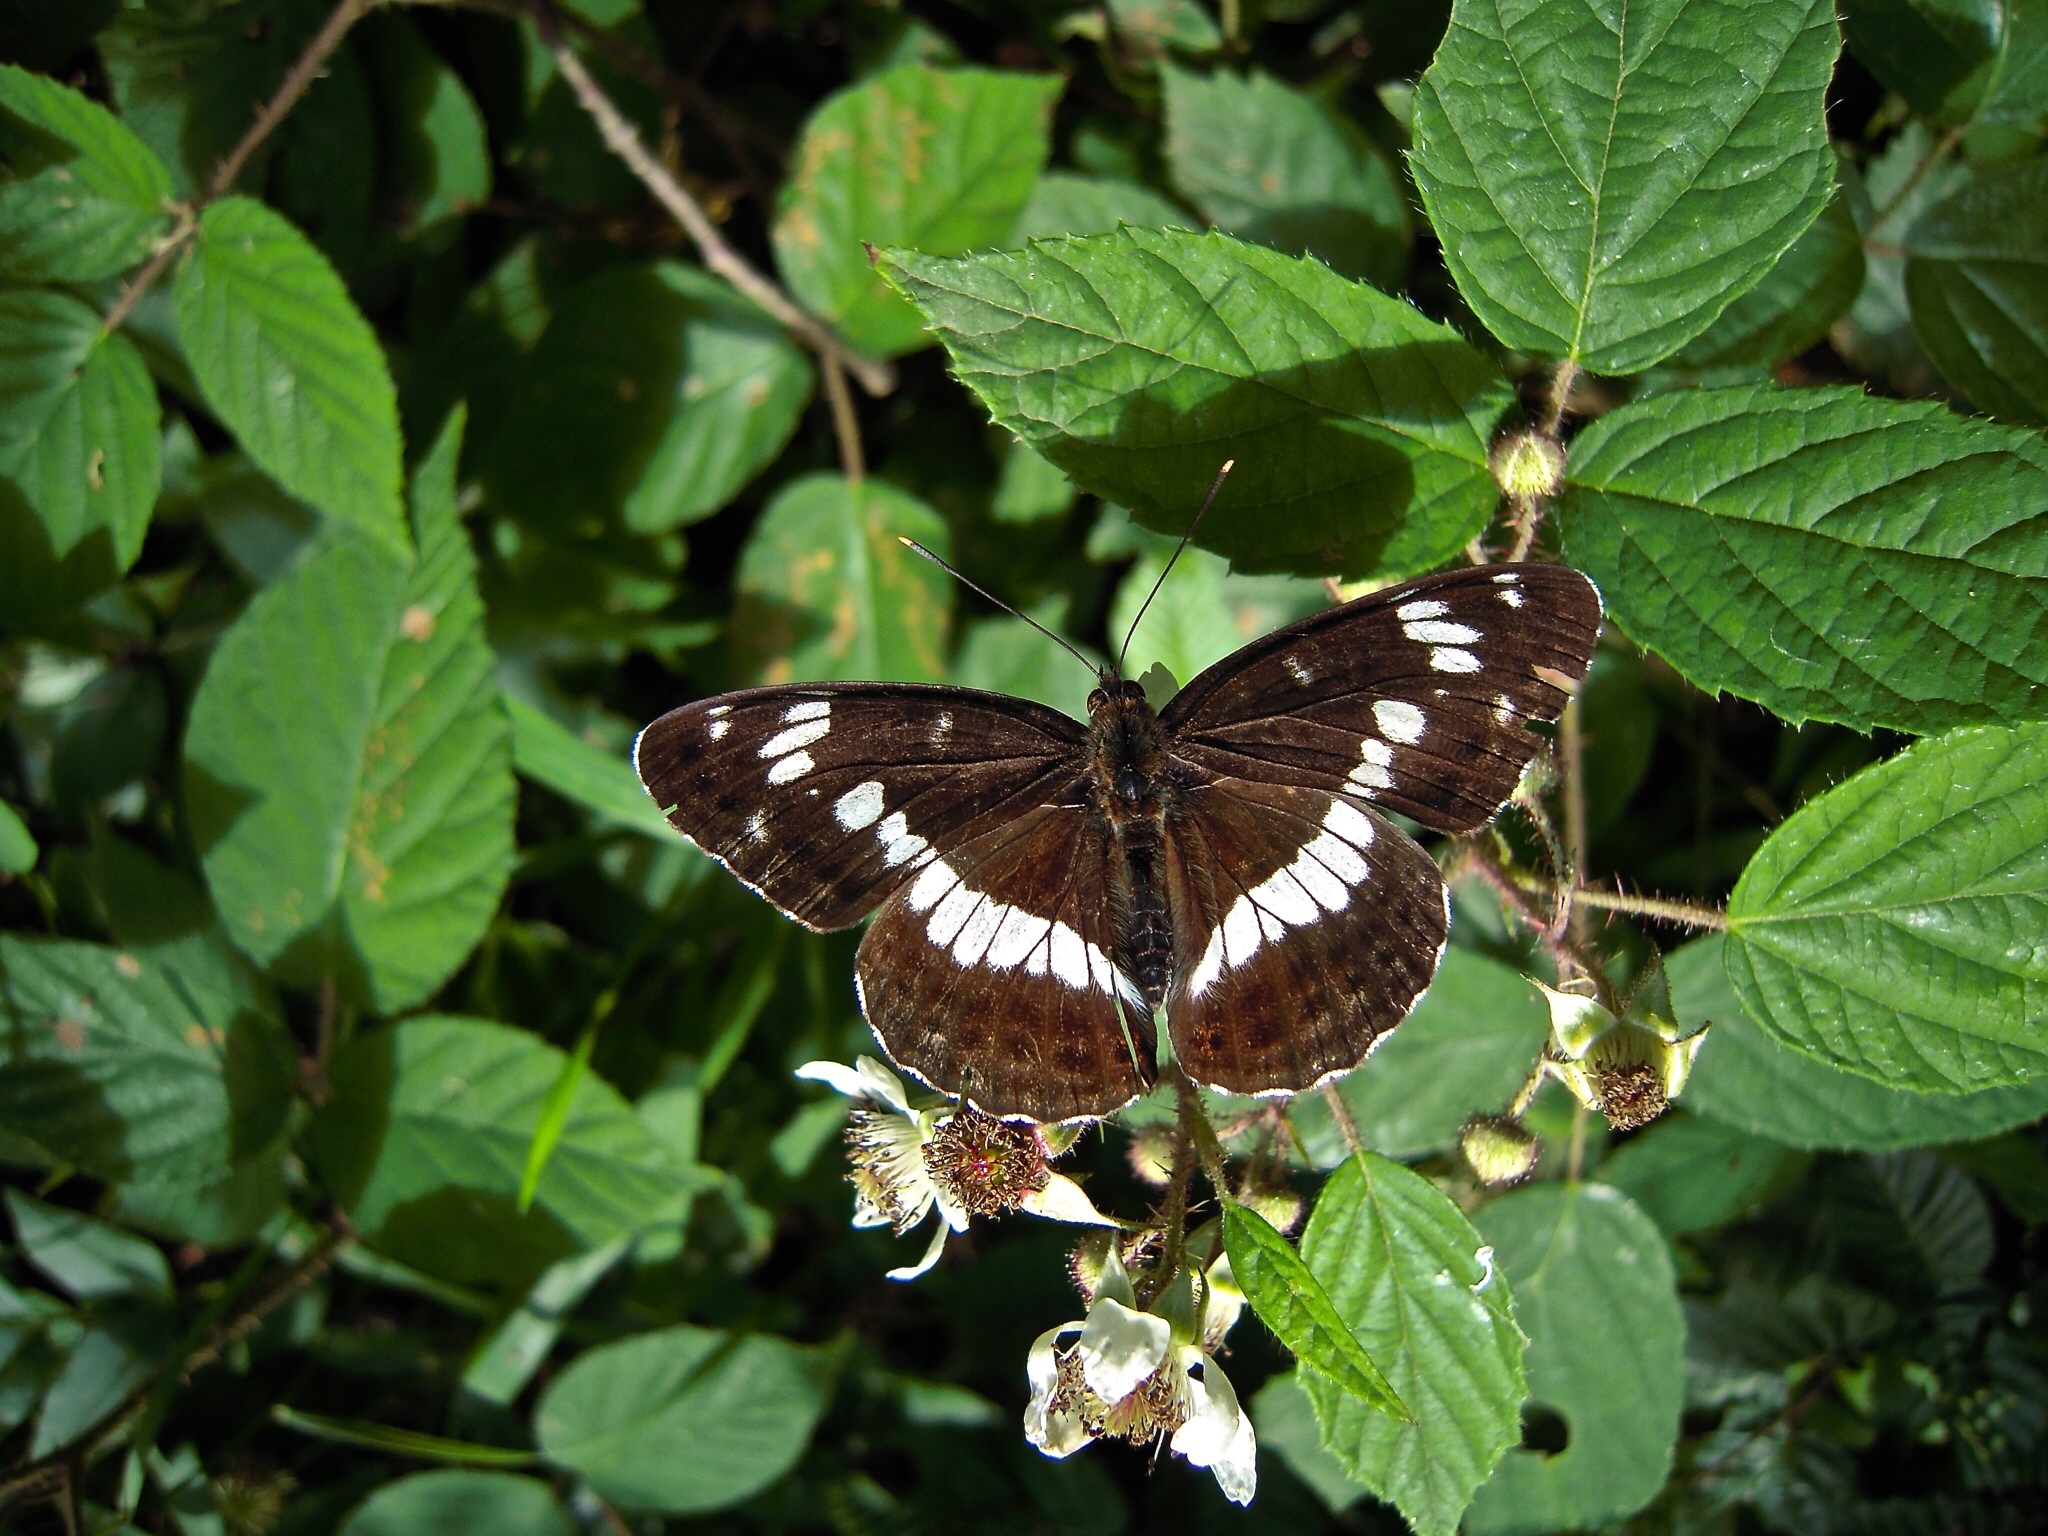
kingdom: Animalia
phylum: Arthropoda
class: Insecta
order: Lepidoptera
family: Nymphalidae
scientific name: Nymphalidae
